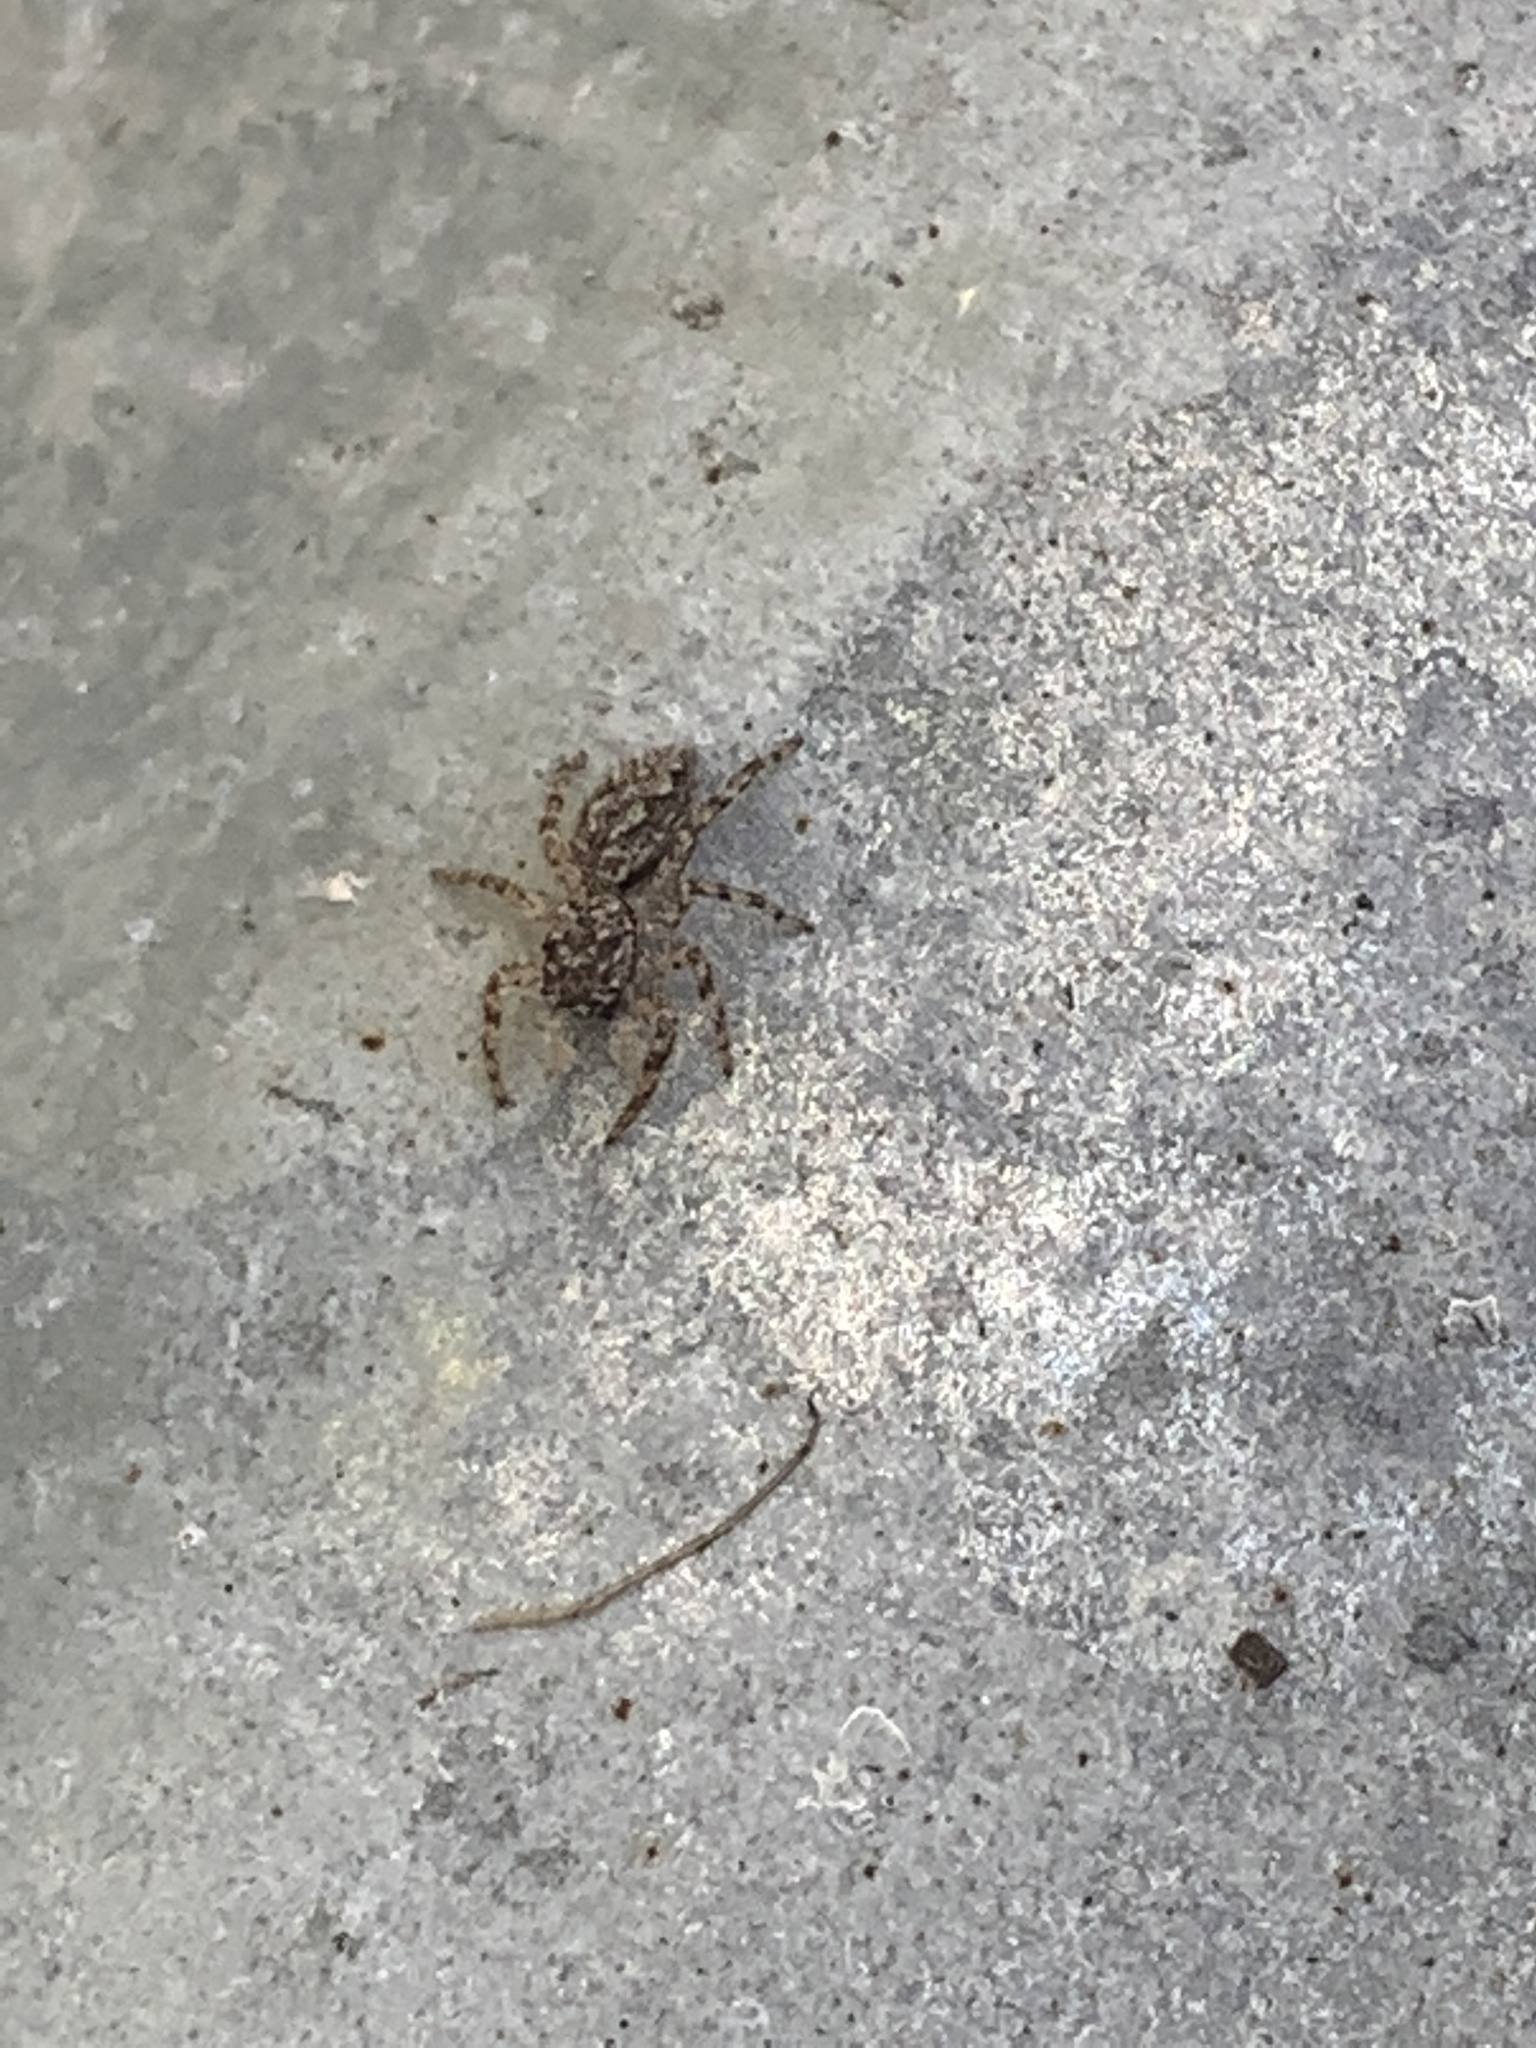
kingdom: Animalia
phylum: Arthropoda
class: Arachnida
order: Araneae
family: Salticidae
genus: Platycryptus
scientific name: Platycryptus undatus
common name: Tan jumping spider
